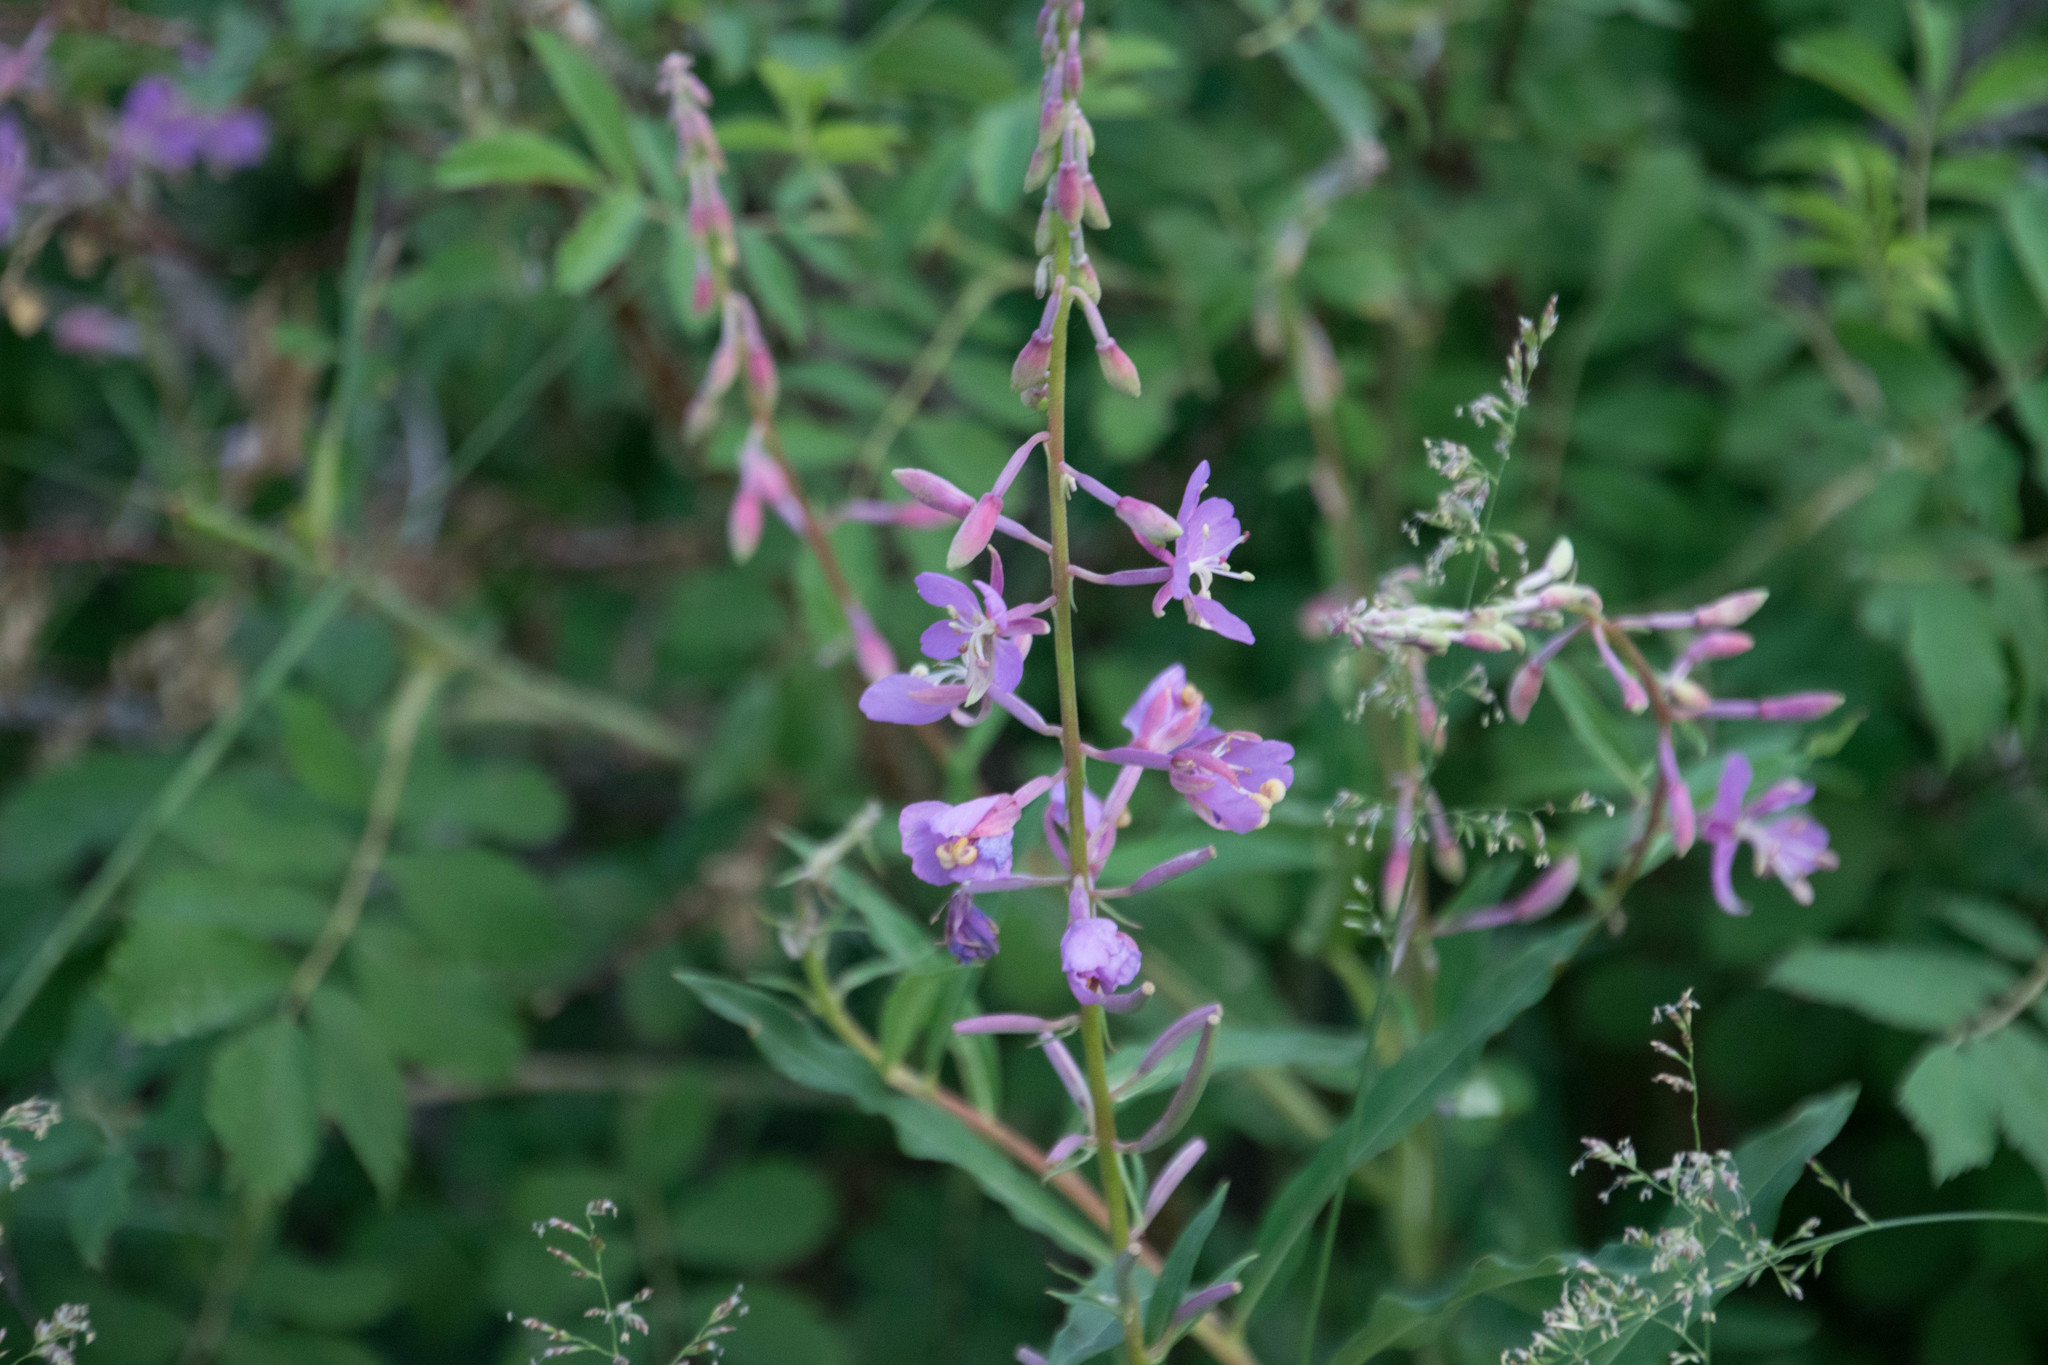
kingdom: Plantae
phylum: Tracheophyta
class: Magnoliopsida
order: Myrtales
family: Onagraceae
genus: Chamaenerion
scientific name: Chamaenerion angustifolium
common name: Fireweed
